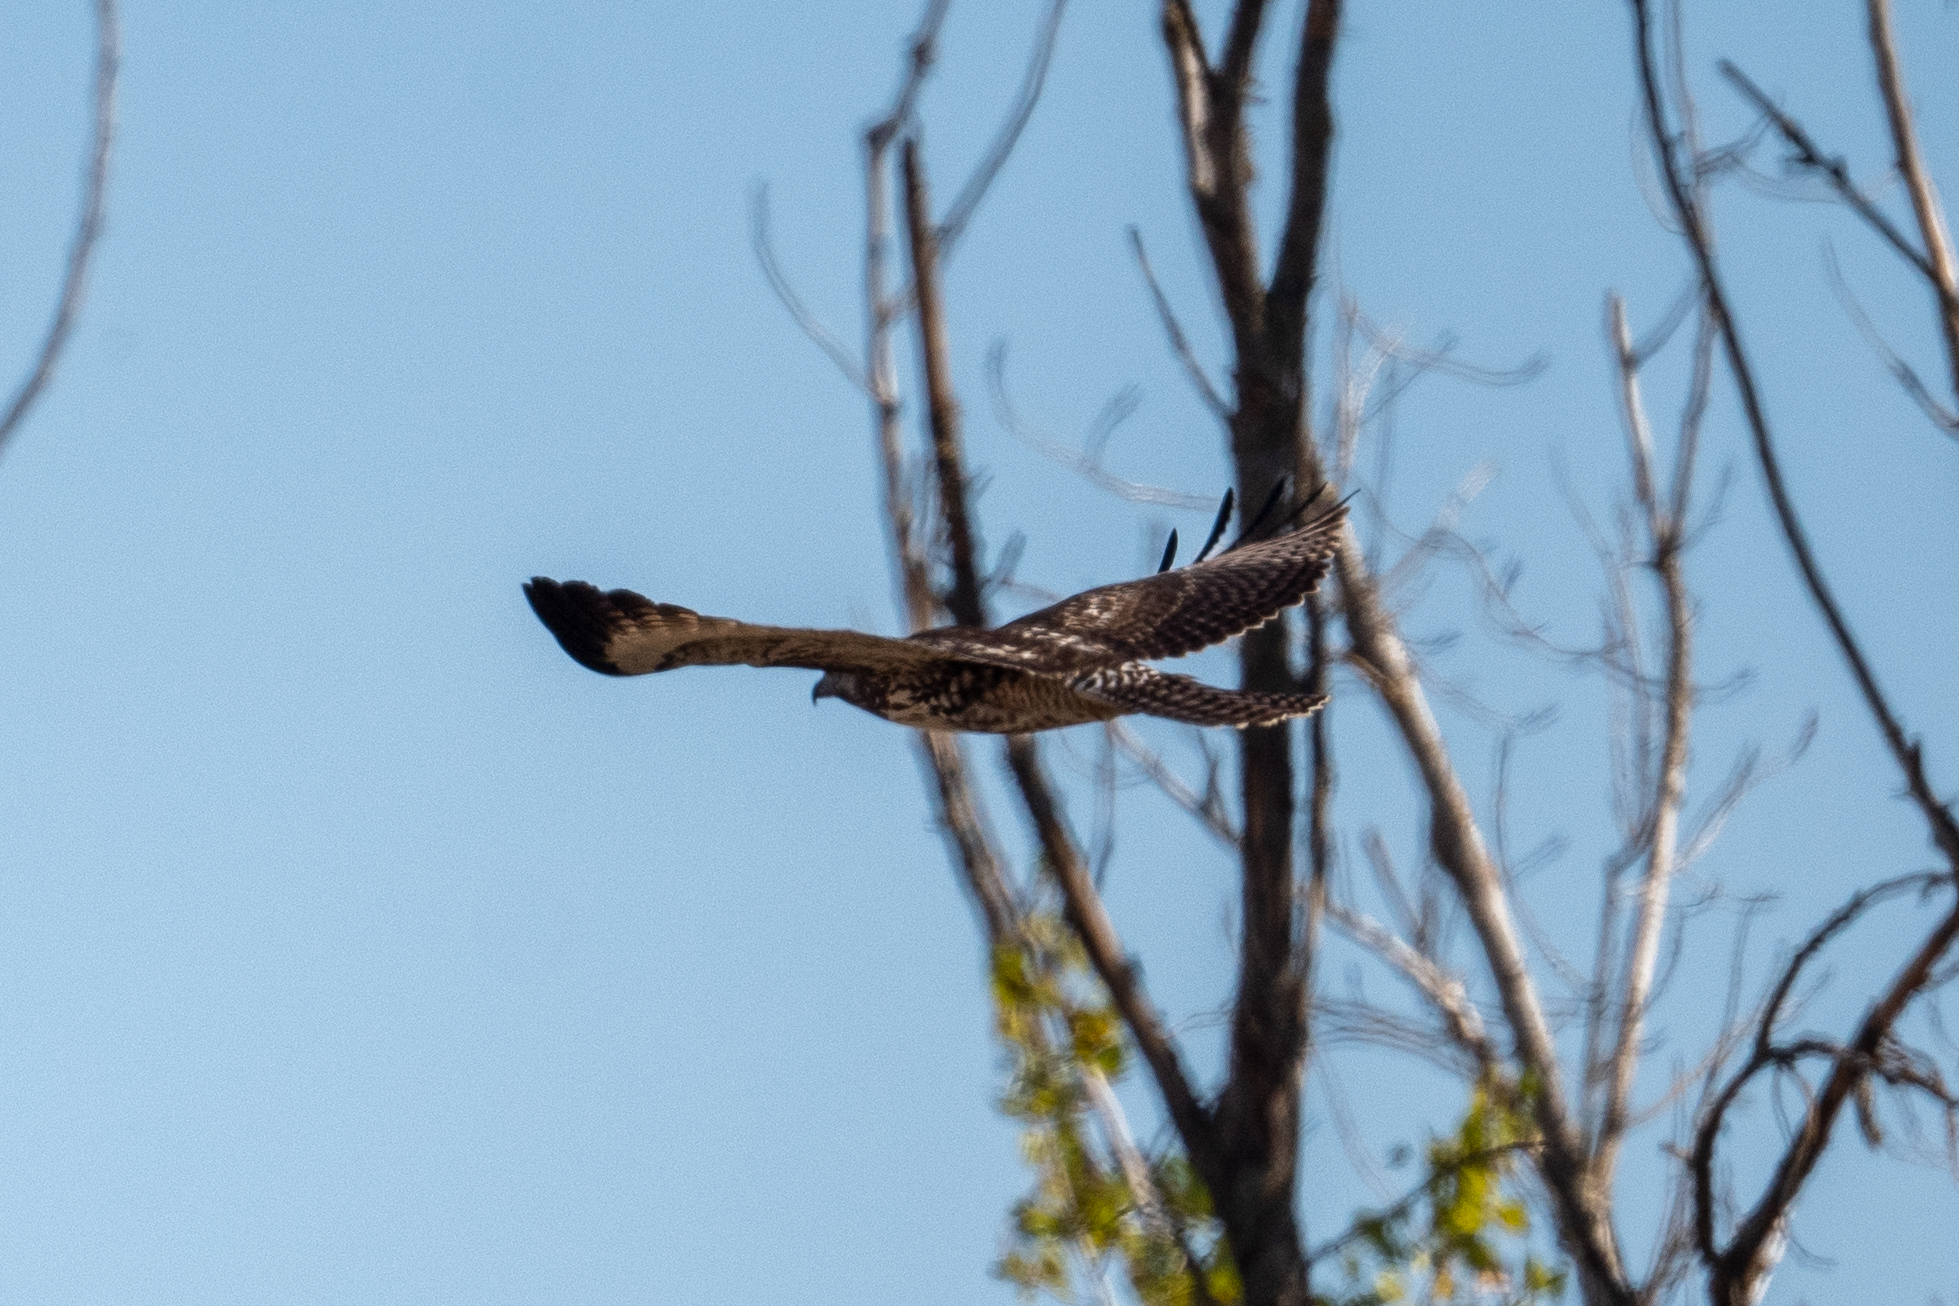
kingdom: Animalia
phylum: Chordata
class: Aves
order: Accipitriformes
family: Accipitridae
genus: Buteo
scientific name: Buteo jamaicensis
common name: Red-tailed hawk
